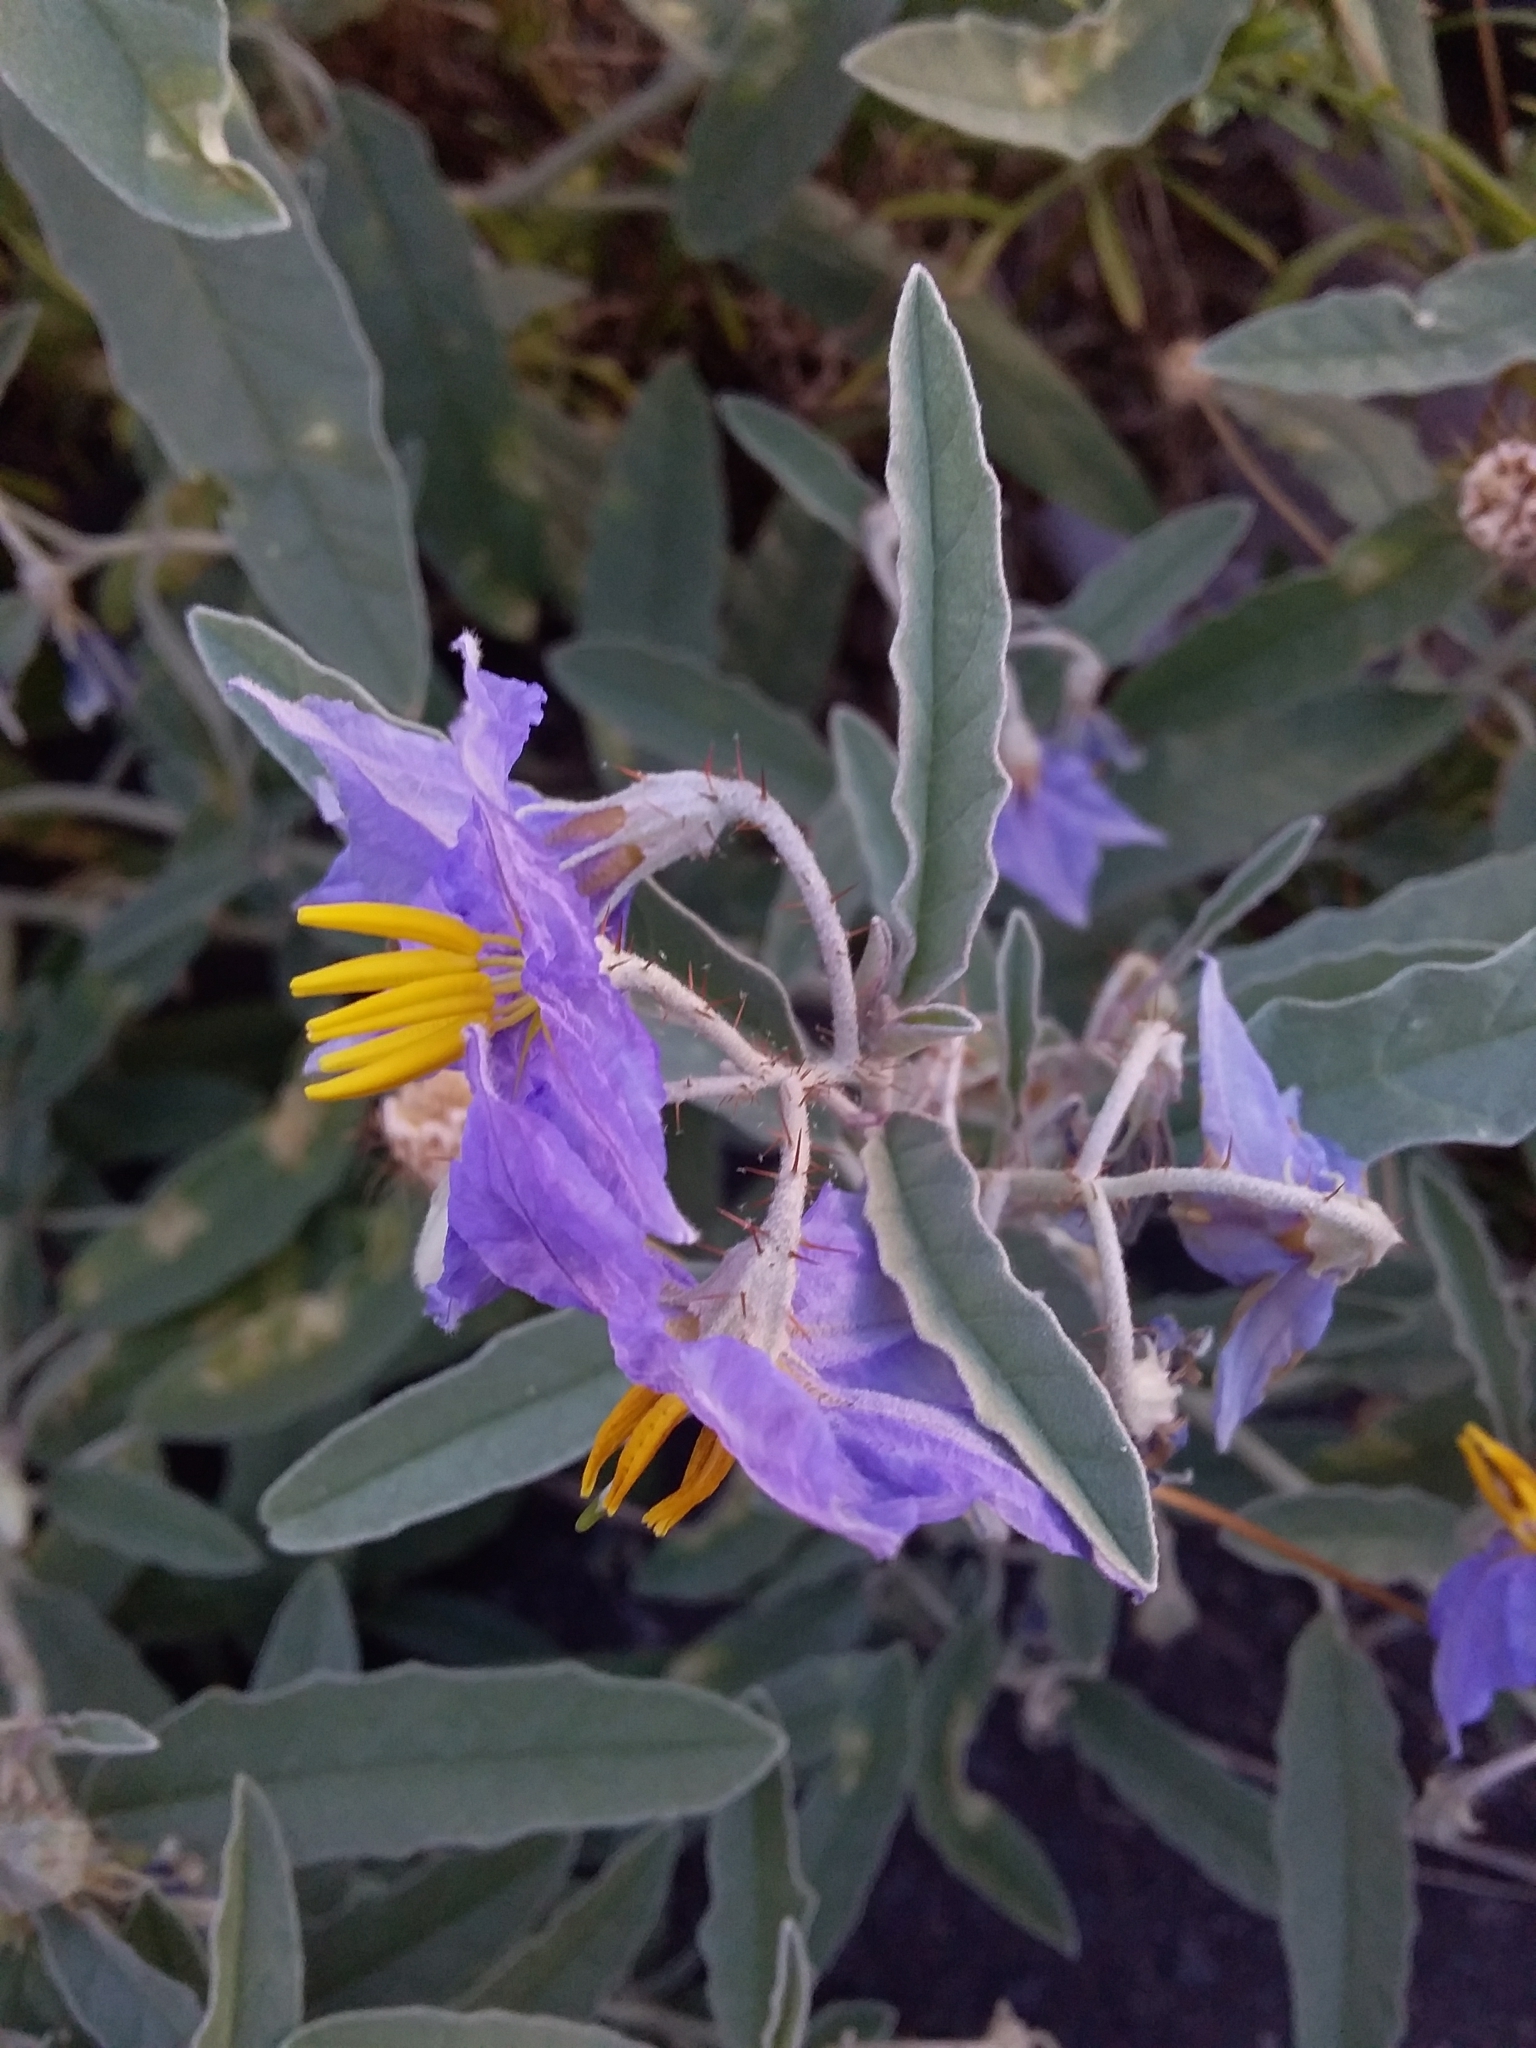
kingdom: Plantae
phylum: Tracheophyta
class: Magnoliopsida
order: Solanales
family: Solanaceae
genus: Solanum
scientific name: Solanum elaeagnifolium
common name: Silverleaf nightshade
